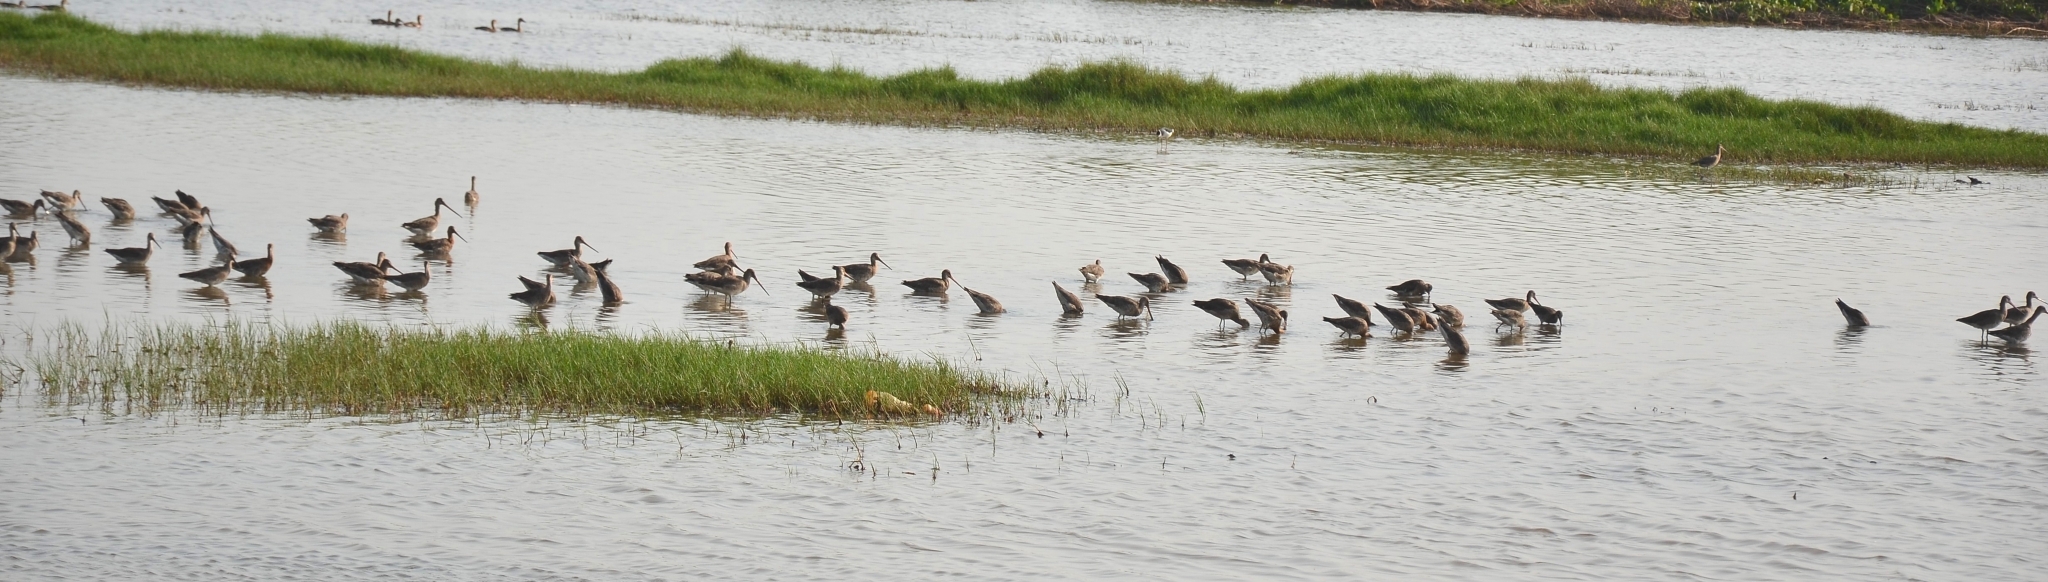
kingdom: Animalia
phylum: Chordata
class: Aves
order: Charadriiformes
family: Scolopacidae
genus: Limosa
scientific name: Limosa limosa
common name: Black-tailed godwit
